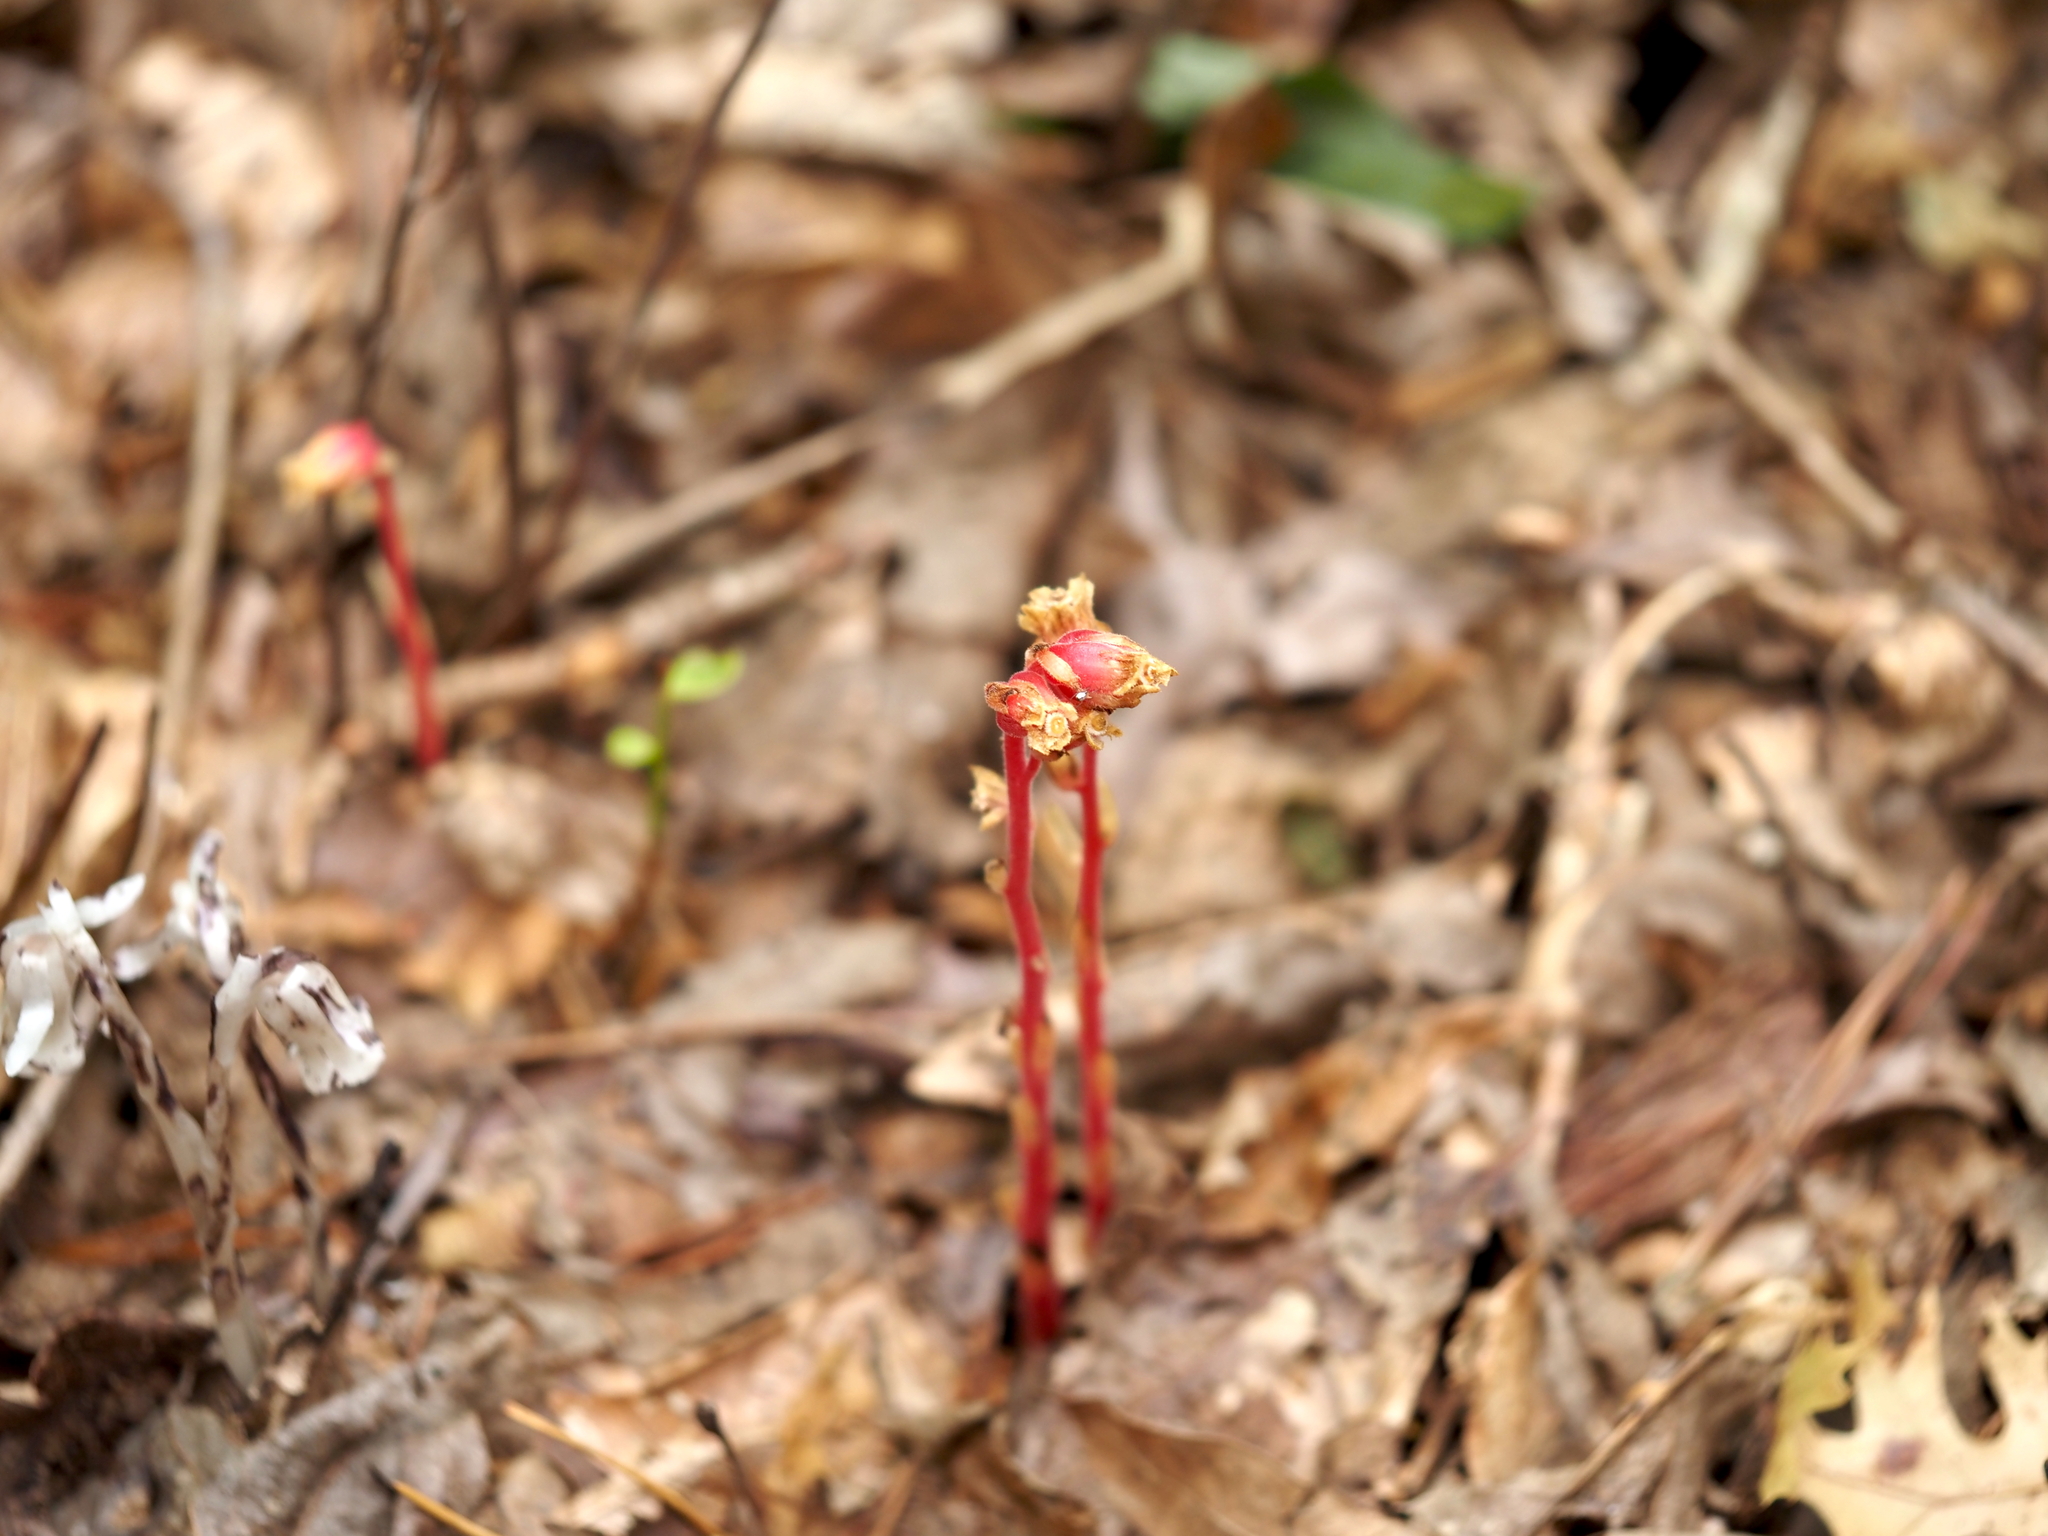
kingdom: Plantae
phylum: Tracheophyta
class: Magnoliopsida
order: Ericales
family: Ericaceae
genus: Hypopitys
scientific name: Hypopitys monotropa
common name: Yellow bird's-nest
